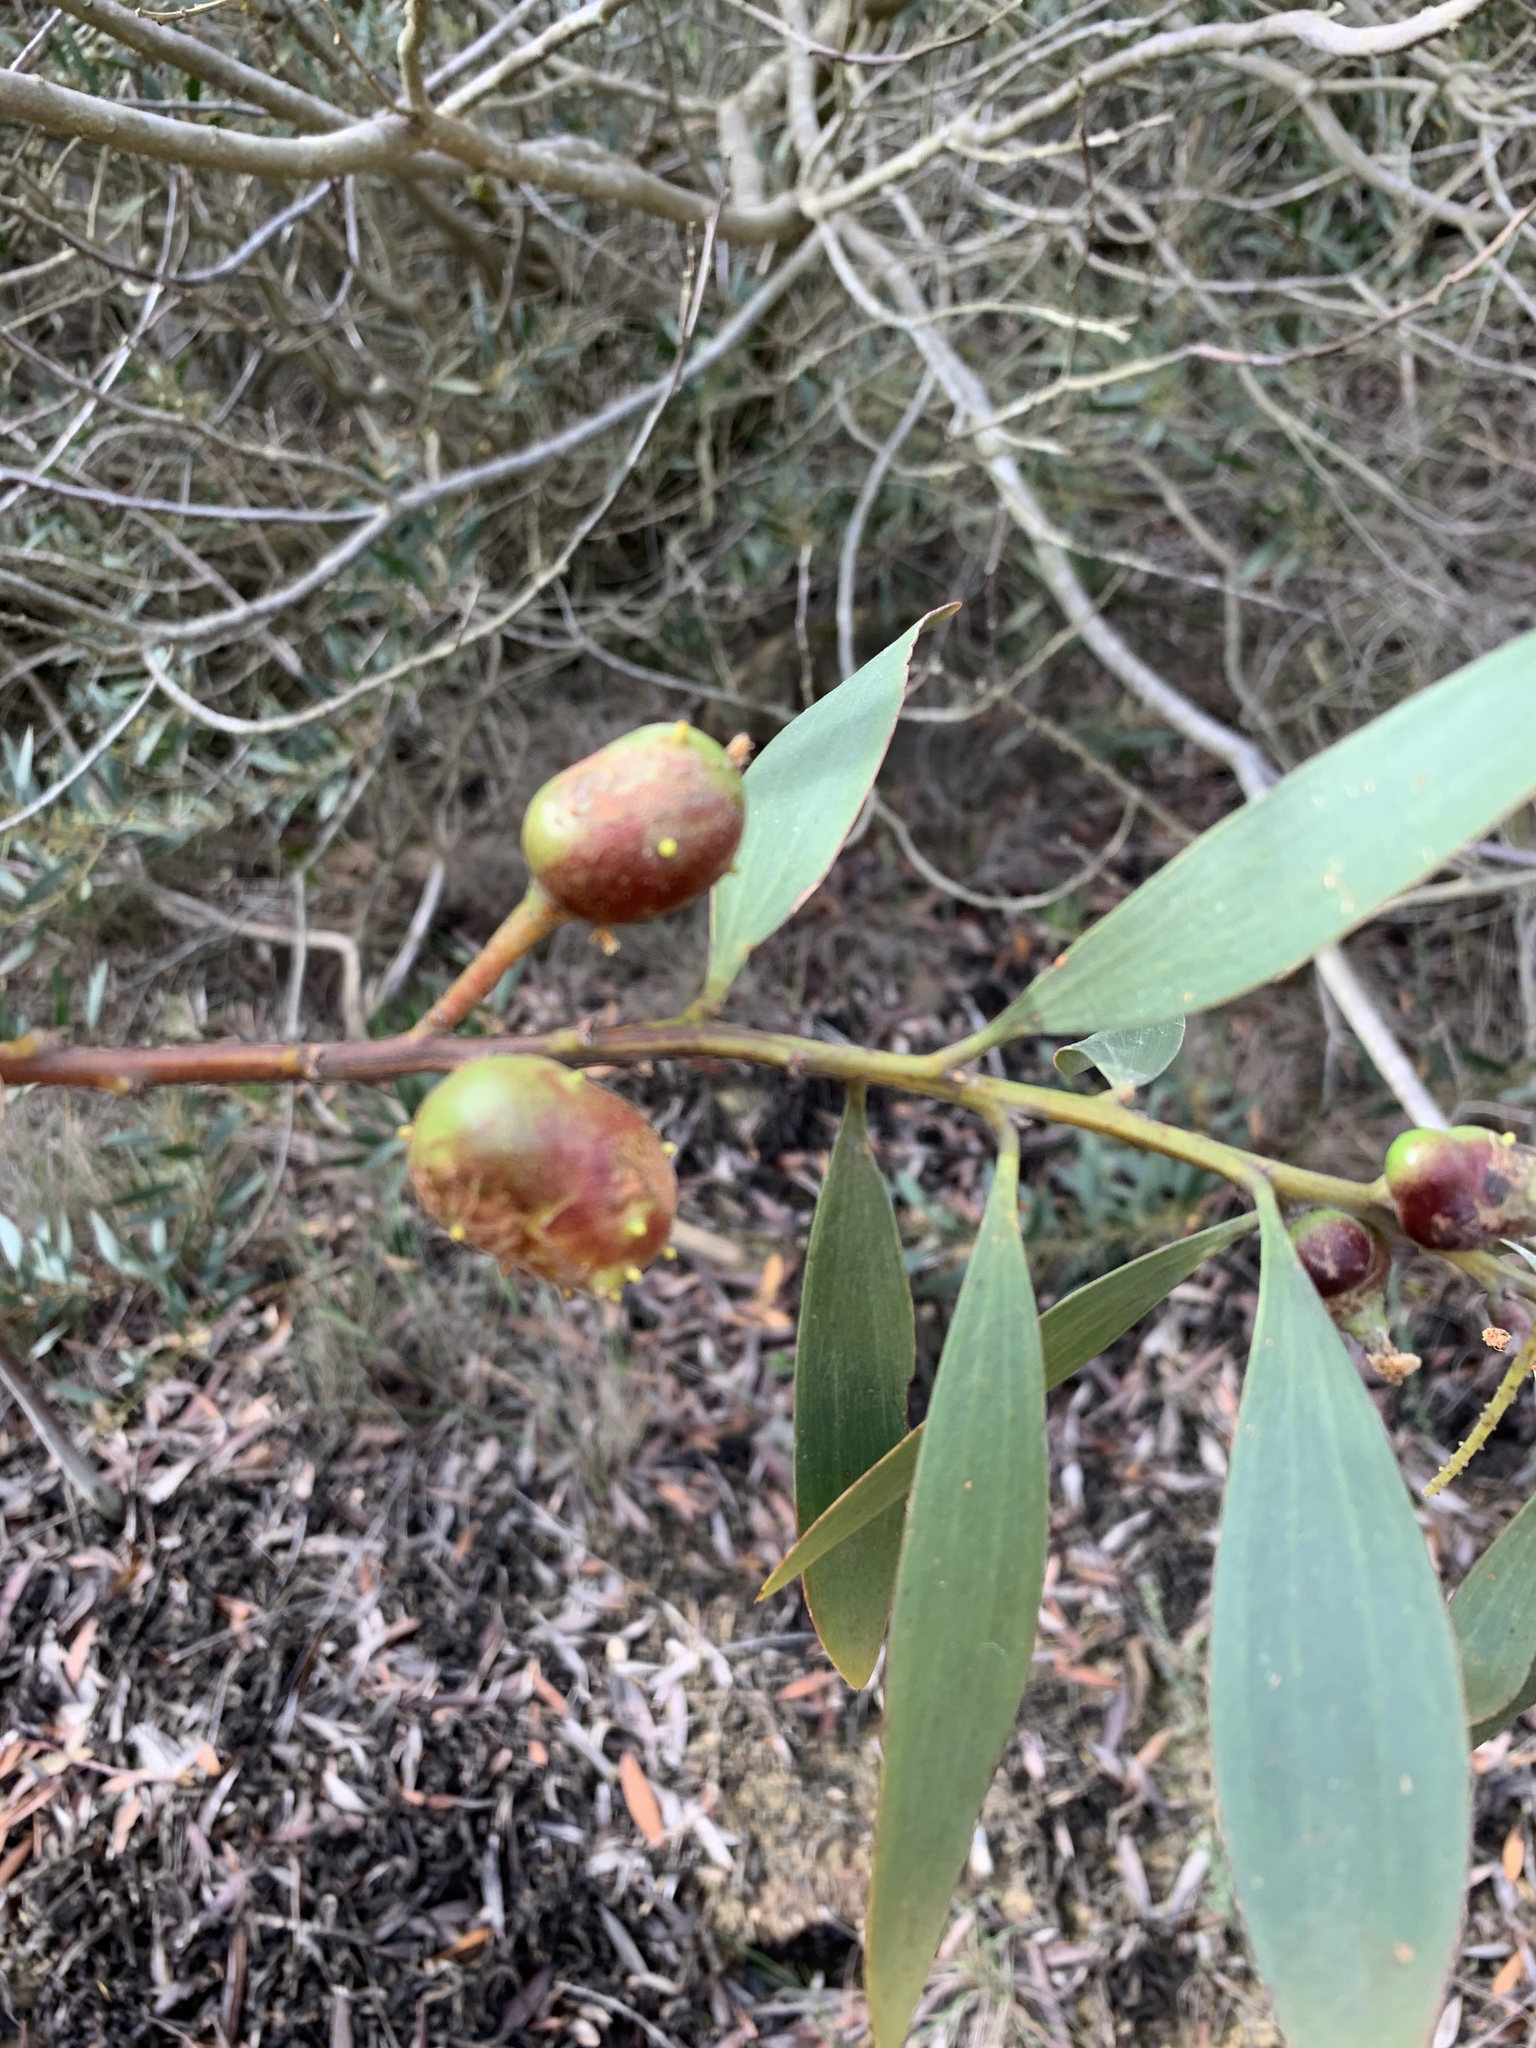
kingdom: Plantae
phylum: Tracheophyta
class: Magnoliopsida
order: Fabales
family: Fabaceae
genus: Acacia
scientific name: Acacia longifolia
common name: Sydney golden wattle
